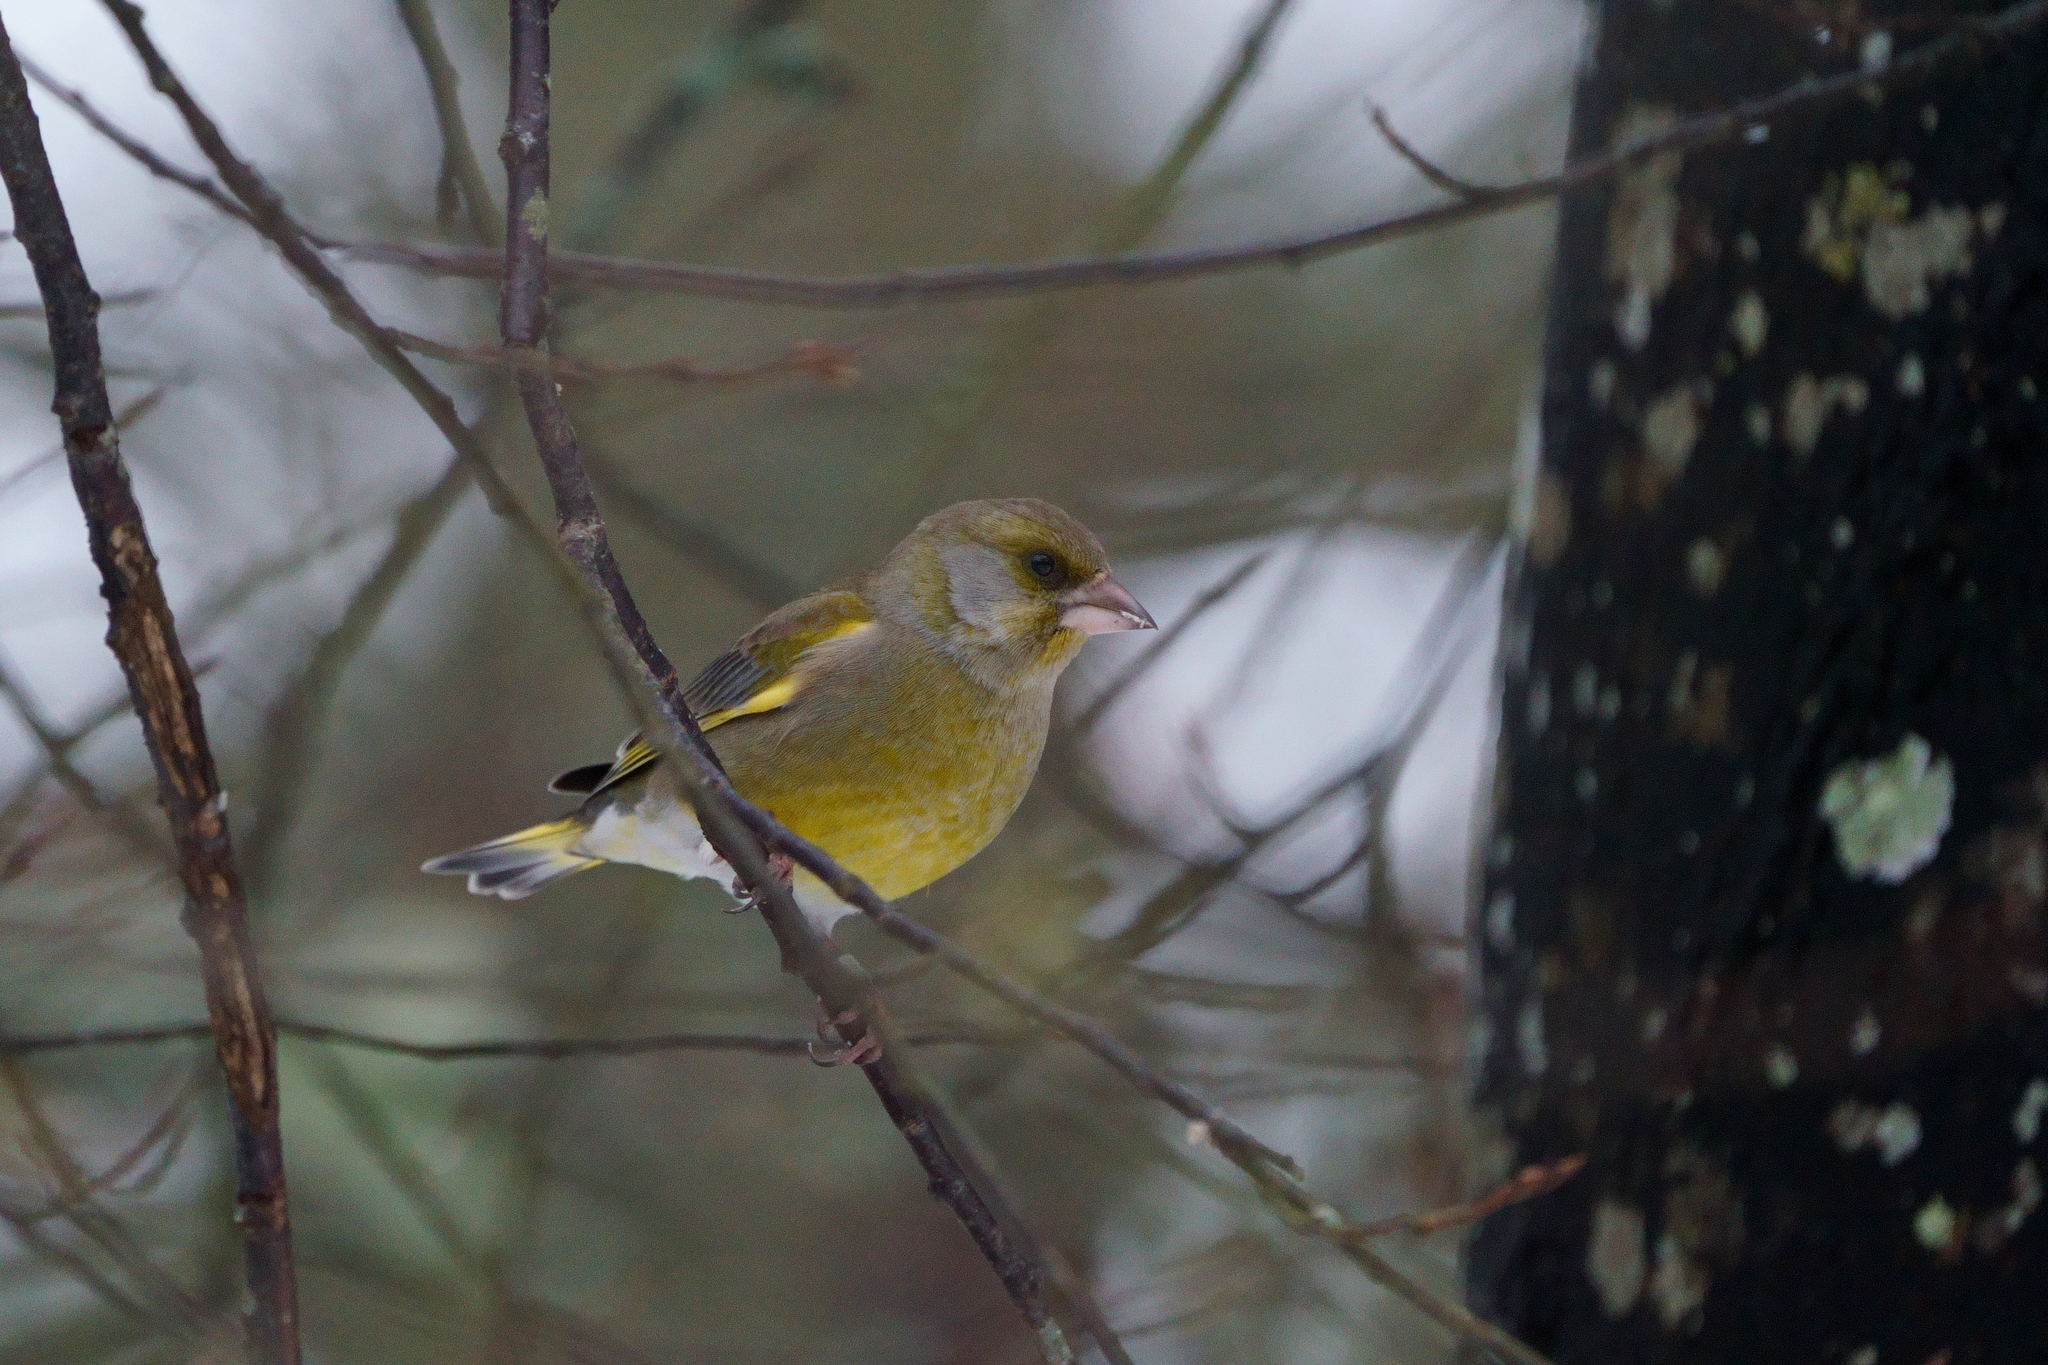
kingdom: Plantae
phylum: Tracheophyta
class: Liliopsida
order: Poales
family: Poaceae
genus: Chloris
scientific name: Chloris chloris
